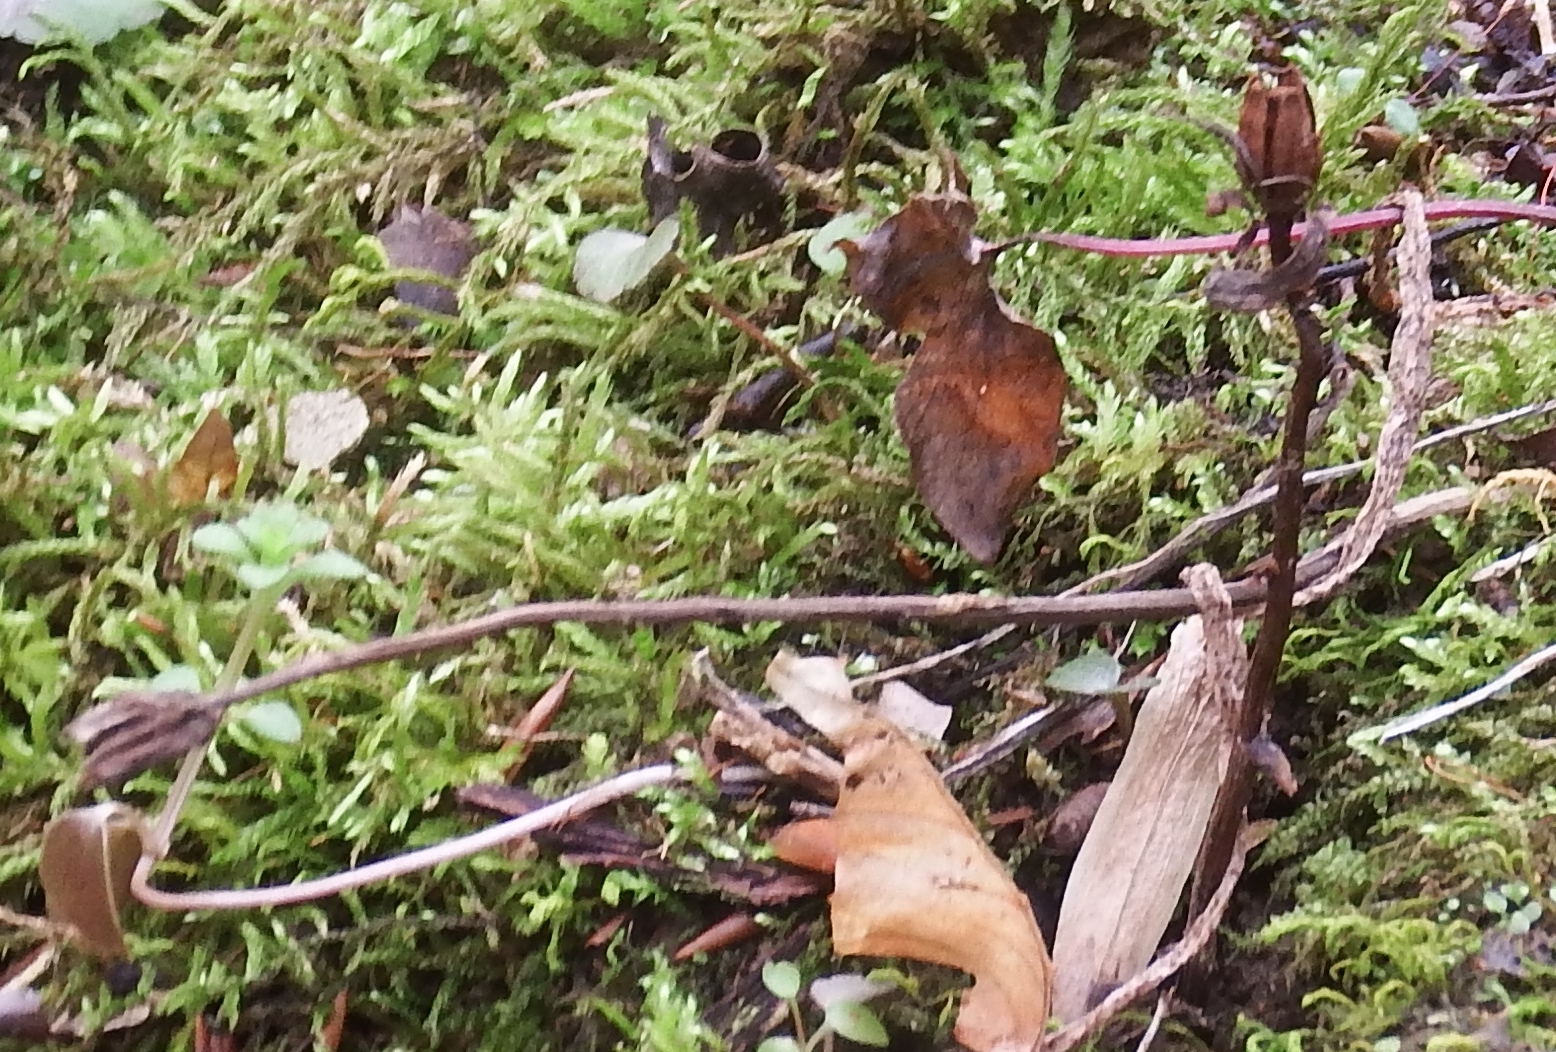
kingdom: Plantae
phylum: Tracheophyta
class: Magnoliopsida
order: Ericales
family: Ericaceae
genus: Monotropa
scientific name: Monotropa uniflora
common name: Convulsion root
